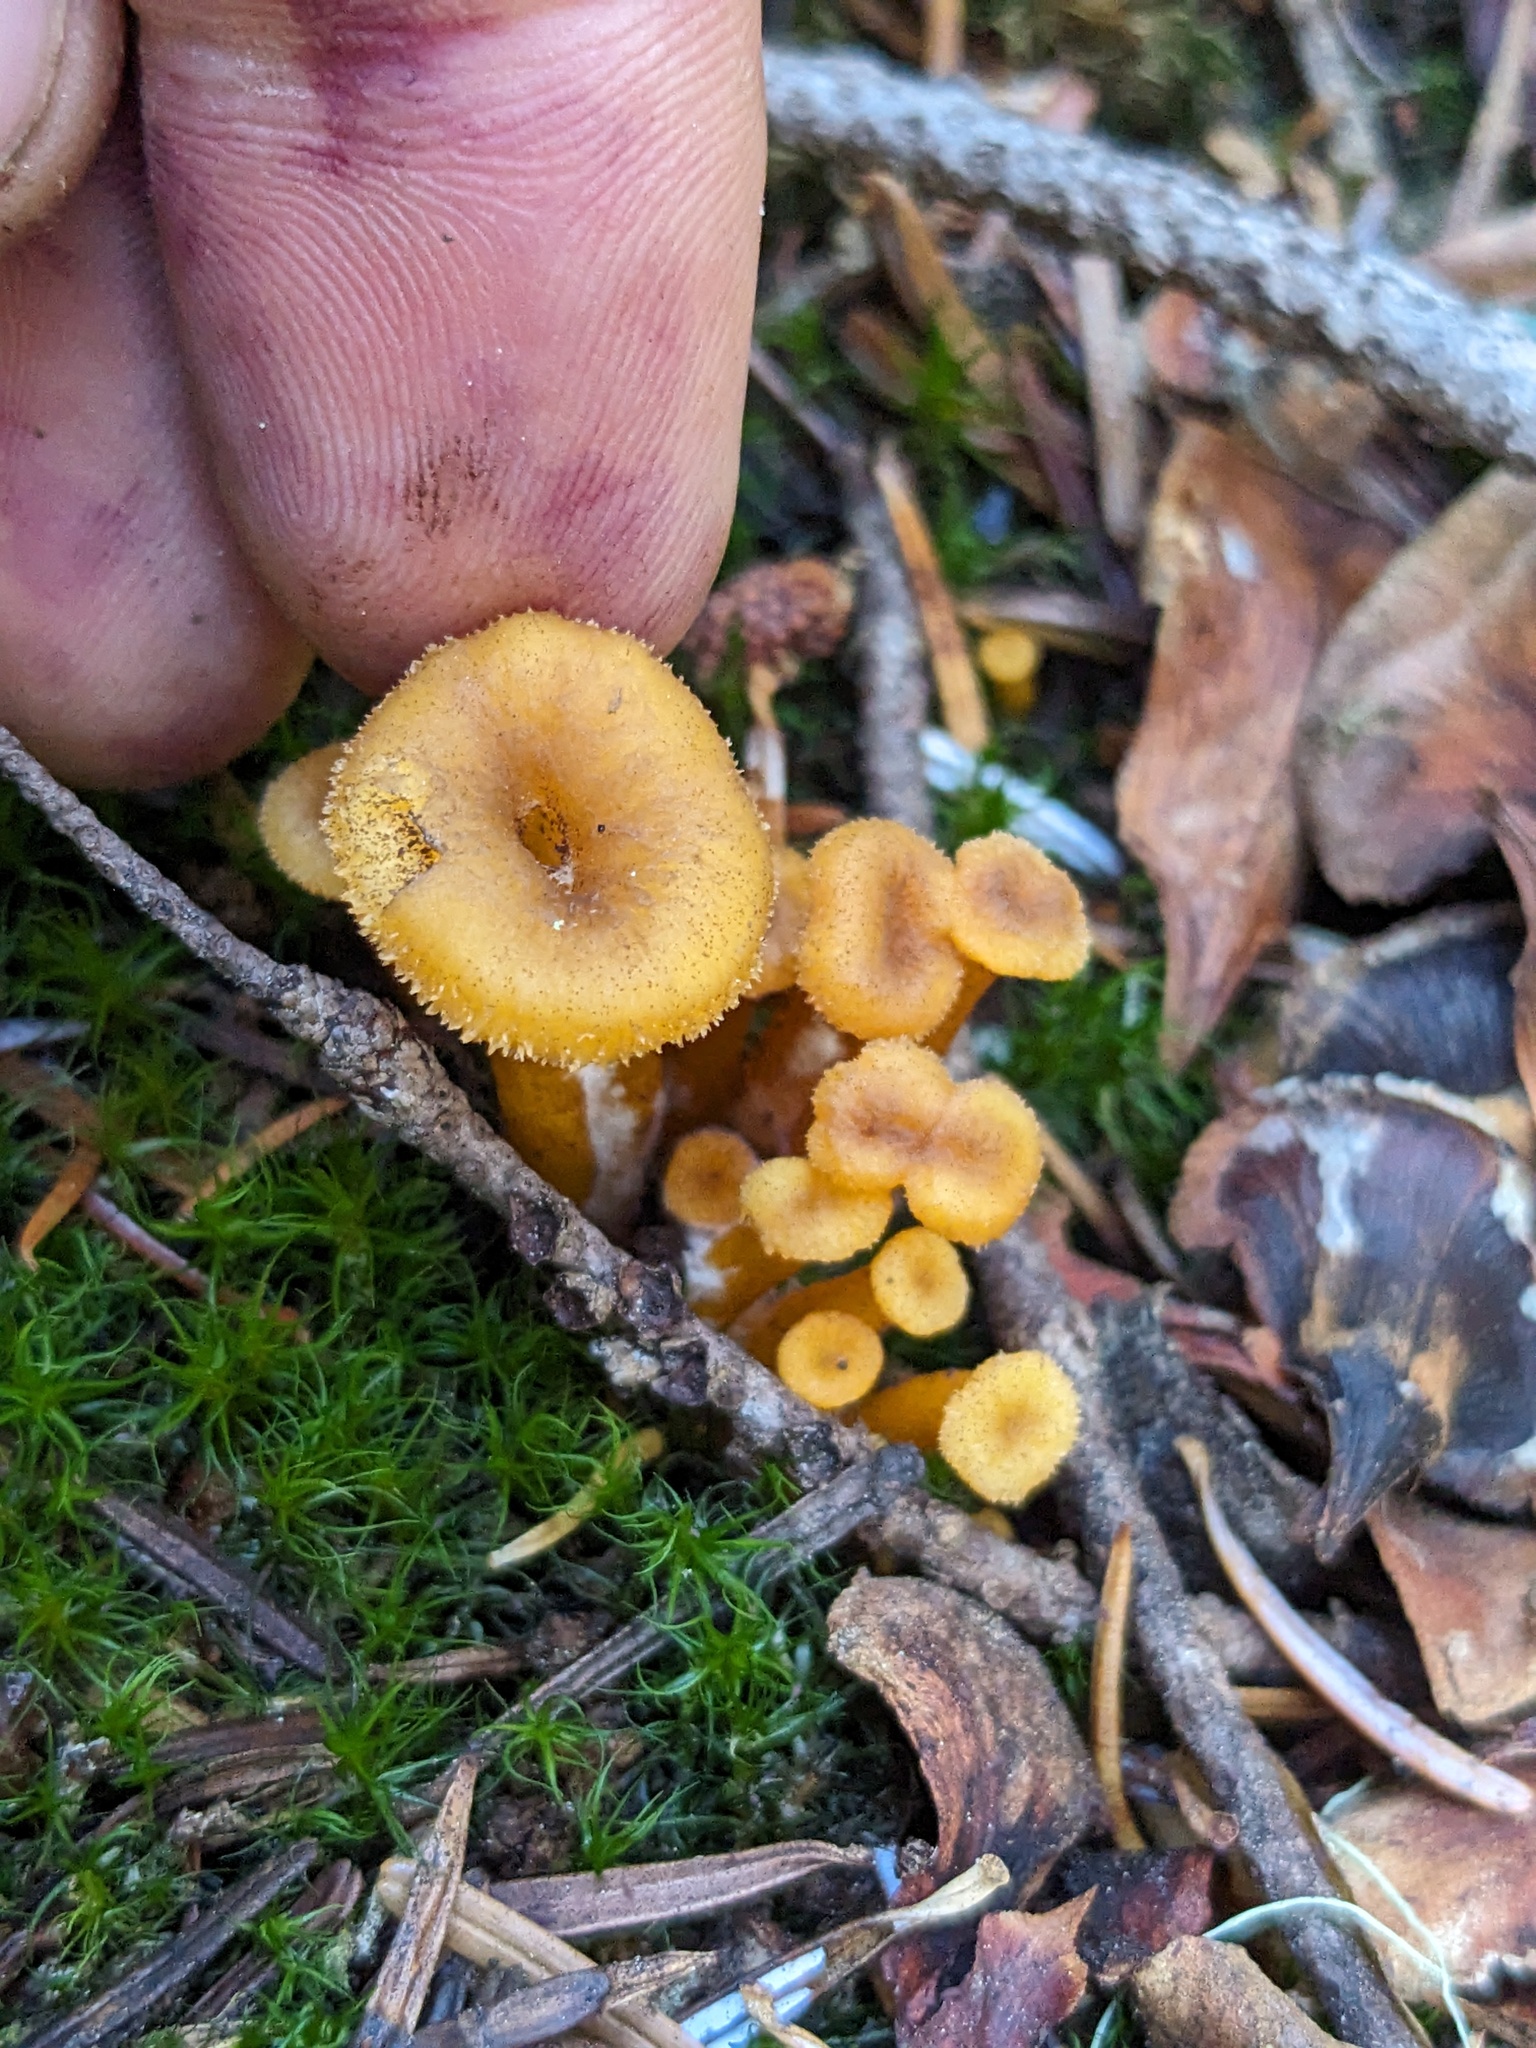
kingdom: Fungi
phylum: Basidiomycota
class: Agaricomycetes
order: Cantharellales
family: Hydnaceae
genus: Craterellus
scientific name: Craterellus tubaeformis
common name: Yellowfoot
